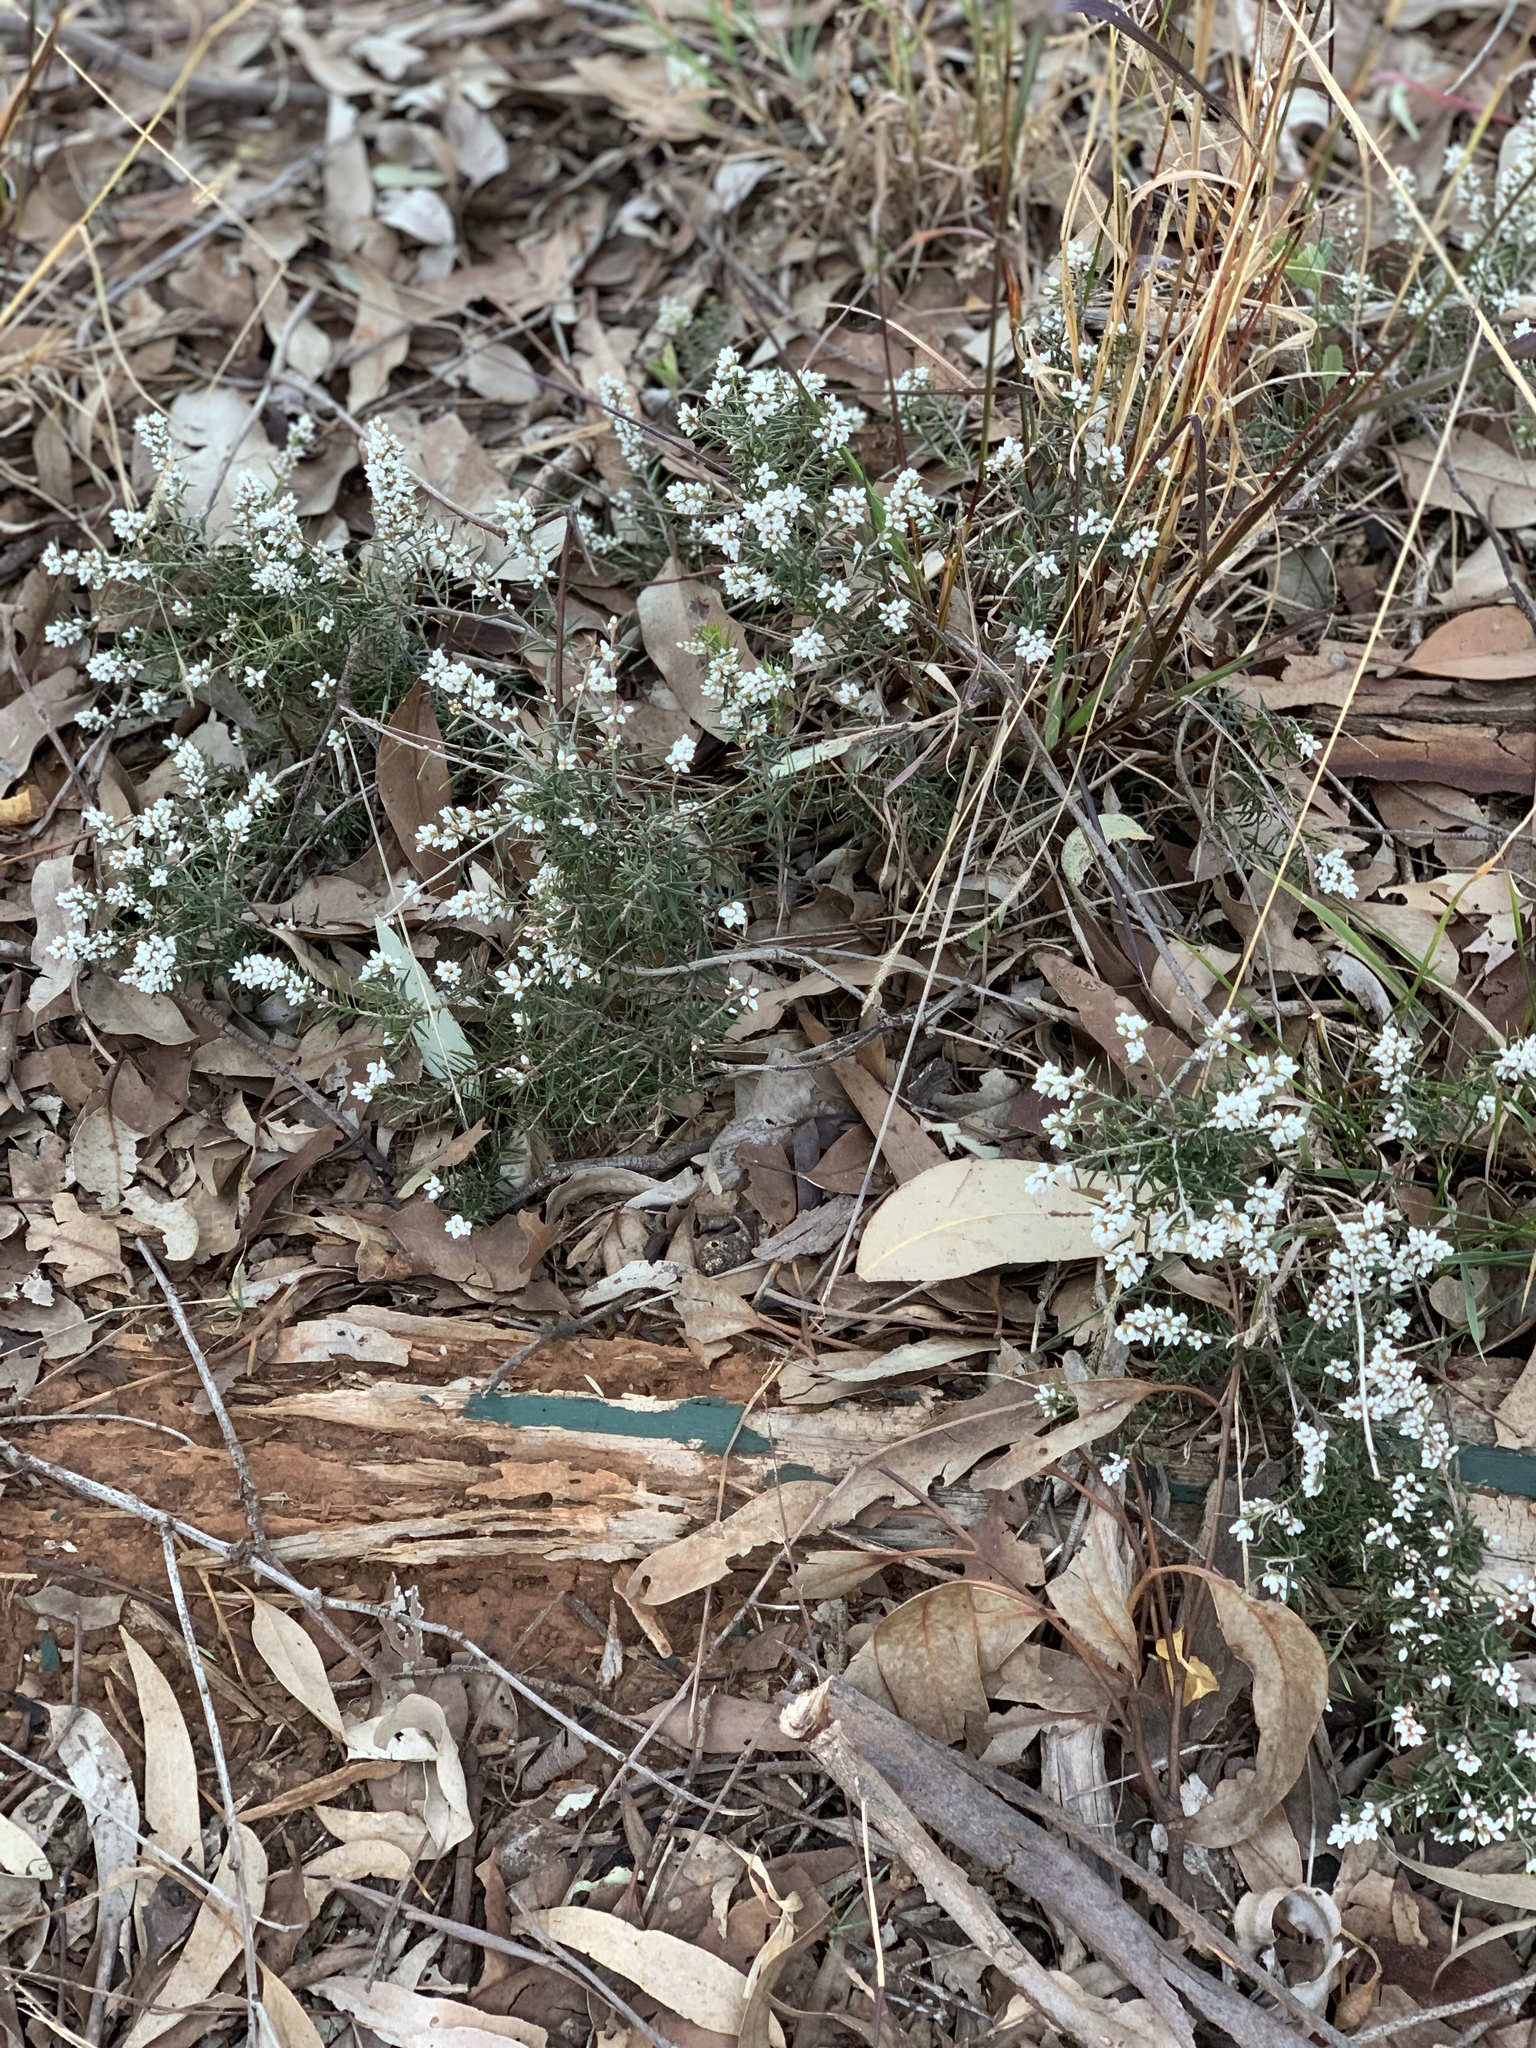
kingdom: Plantae
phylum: Tracheophyta
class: Magnoliopsida
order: Ericales
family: Ericaceae
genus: Lissanthe
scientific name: Lissanthe strigosa
